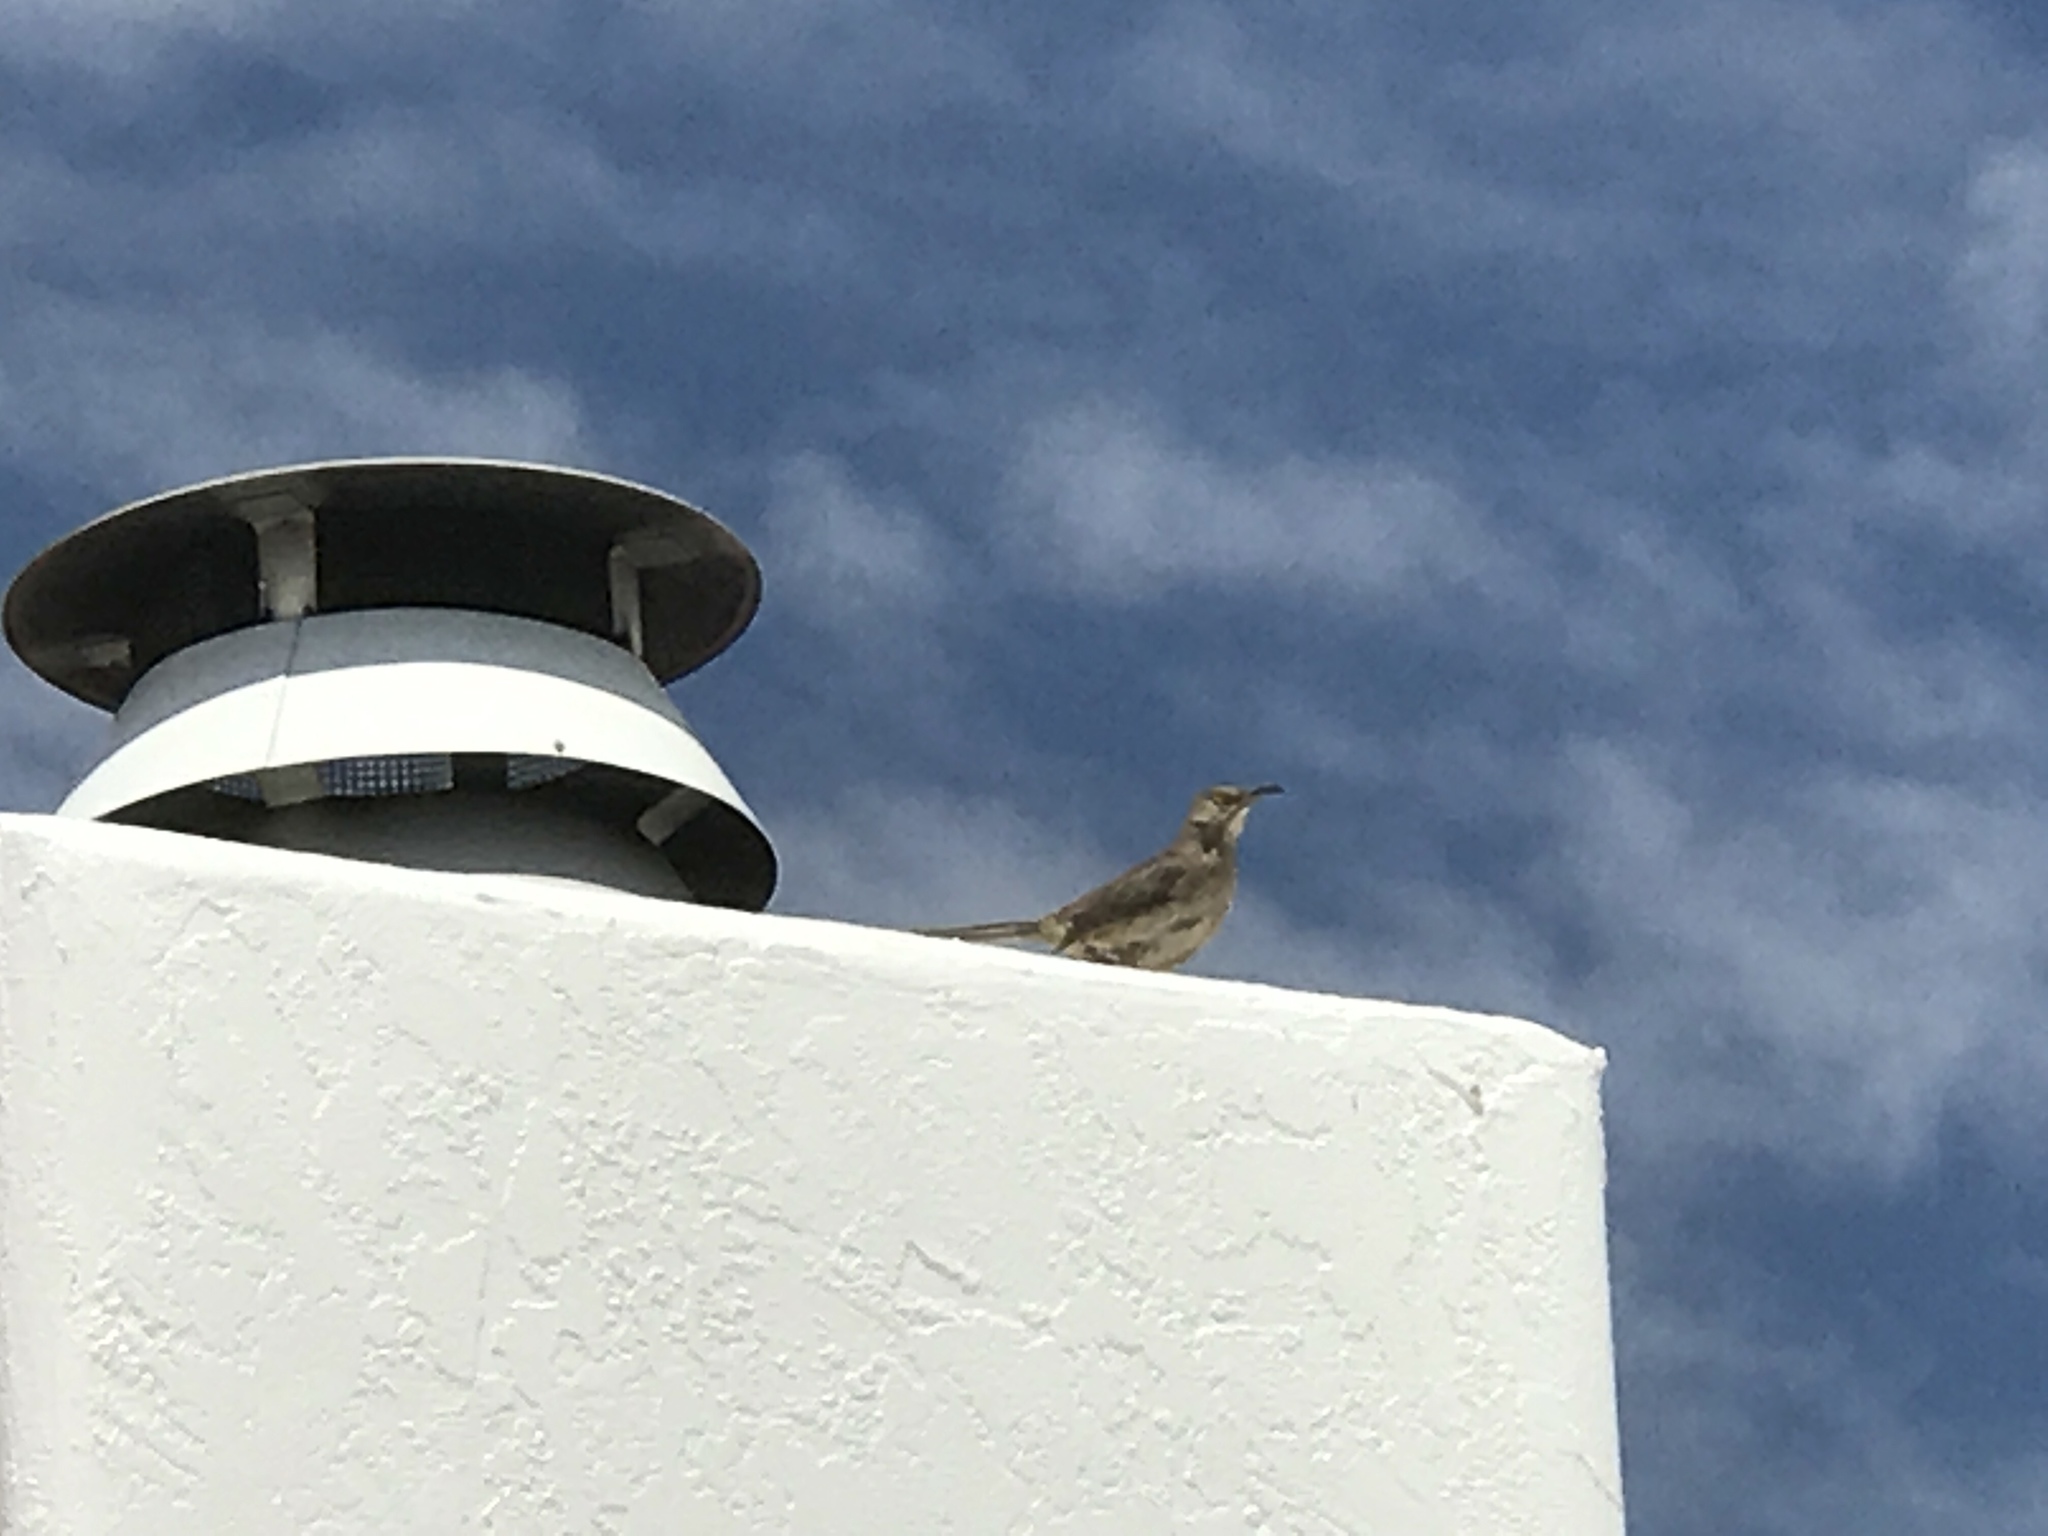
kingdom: Animalia
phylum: Chordata
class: Aves
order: Passeriformes
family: Mimidae
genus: Toxostoma
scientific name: Toxostoma curvirostre
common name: Curve-billed thrasher
